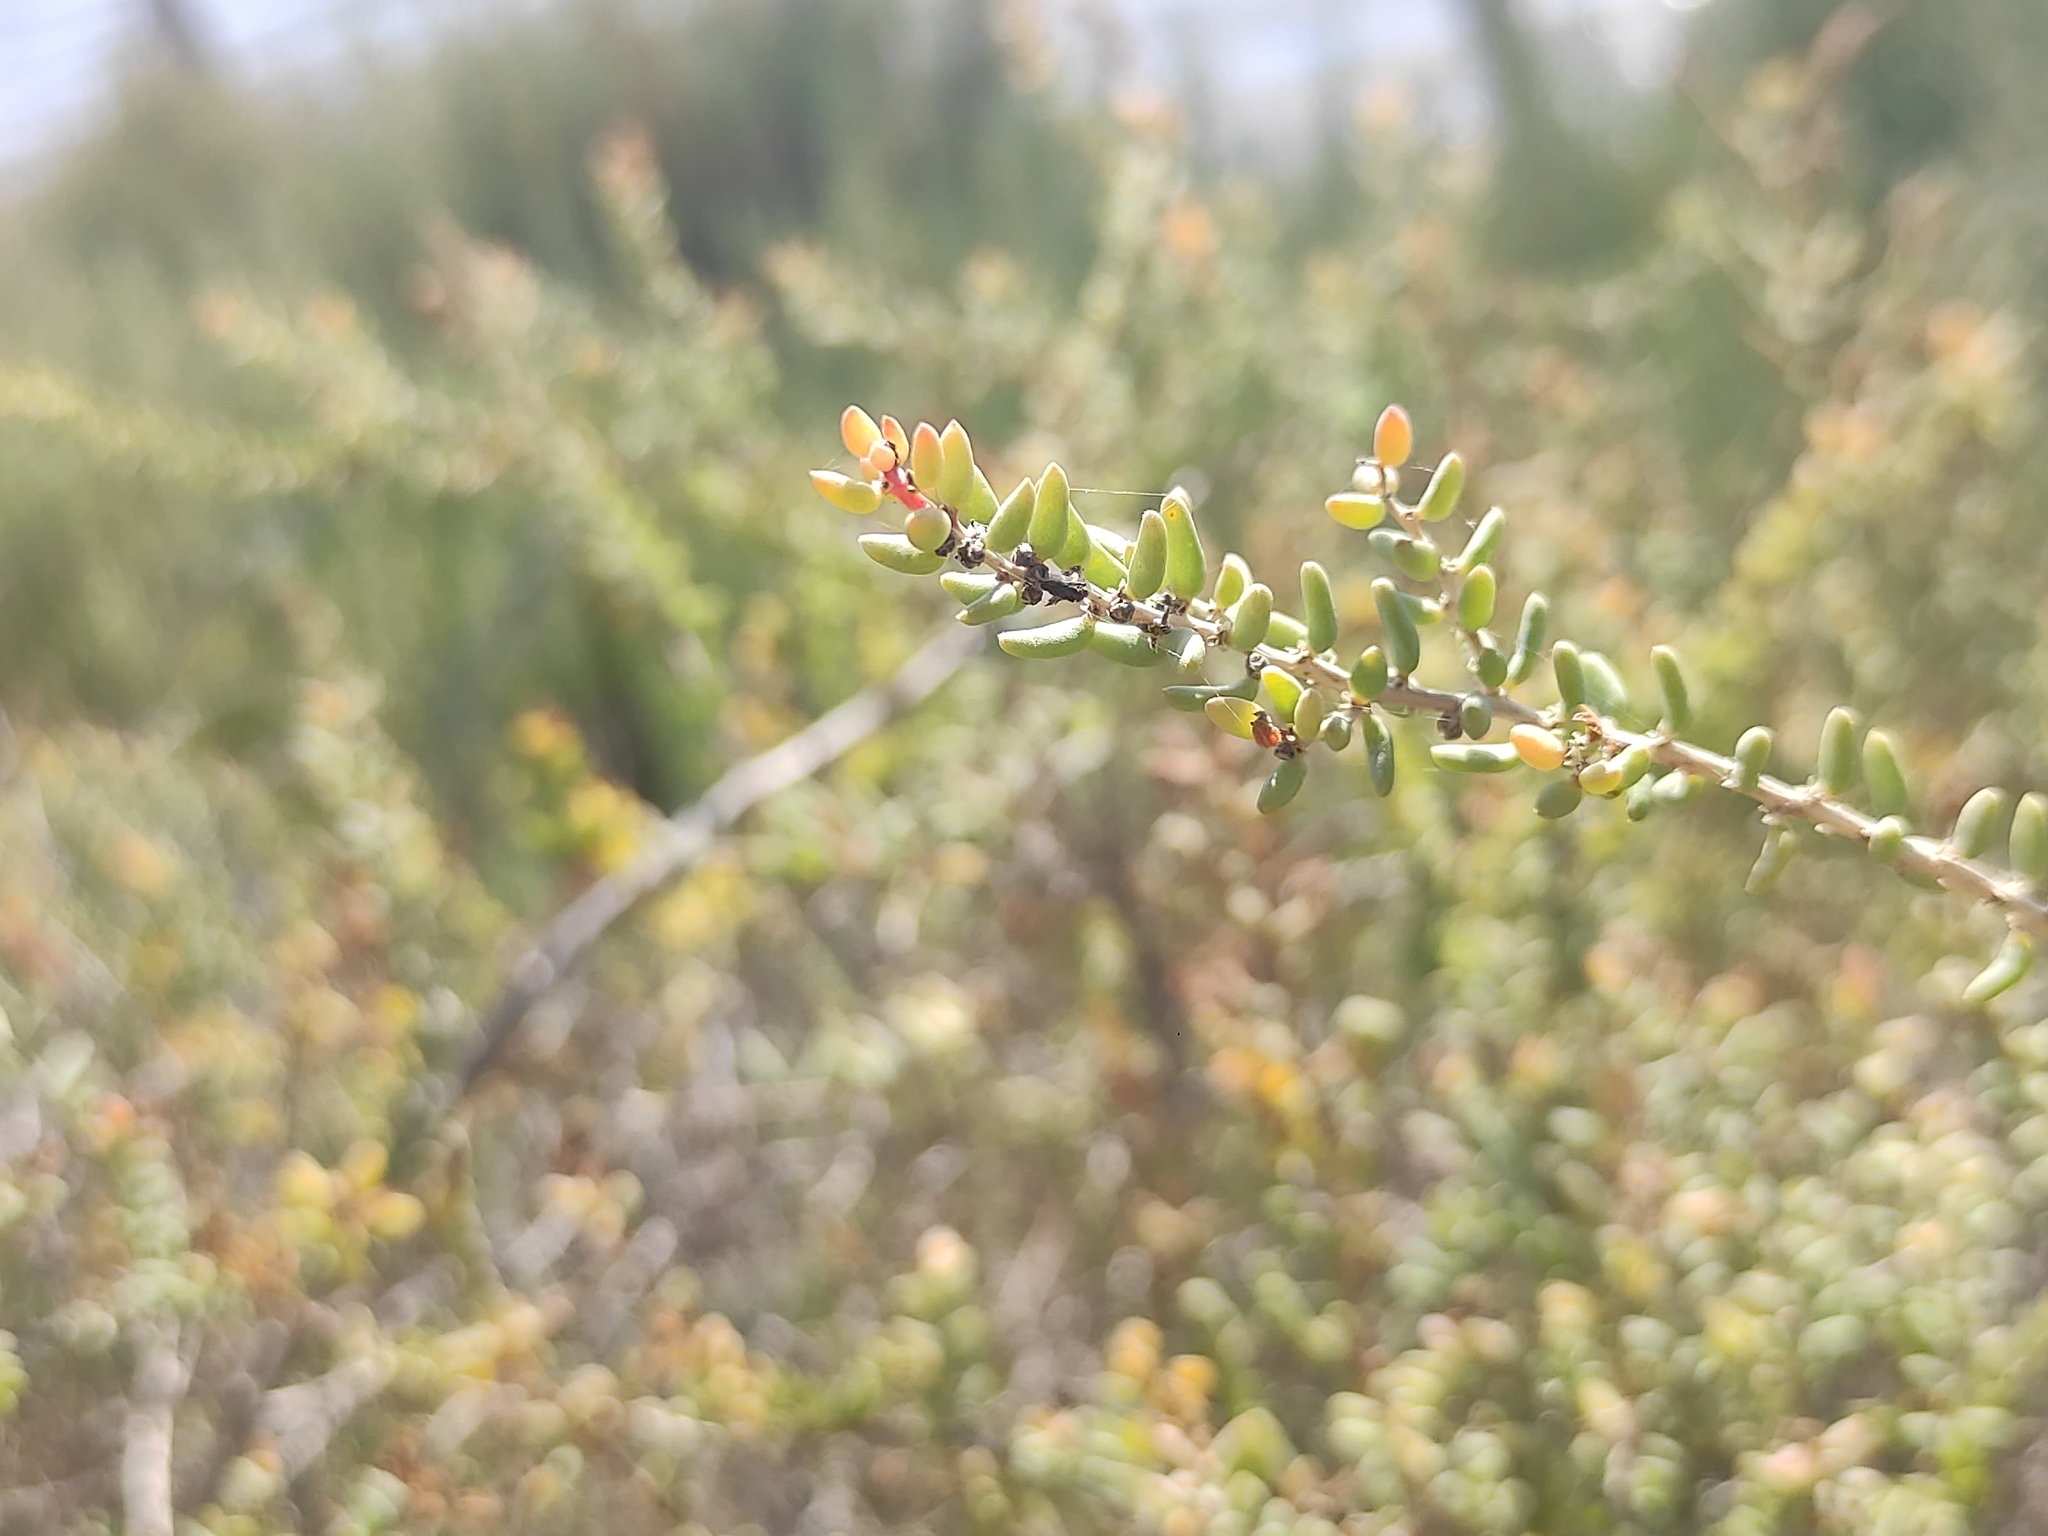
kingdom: Plantae
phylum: Tracheophyta
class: Magnoliopsida
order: Caryophyllales
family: Amaranthaceae
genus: Suaeda
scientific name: Suaeda vera
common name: Shrubby sea-blite
